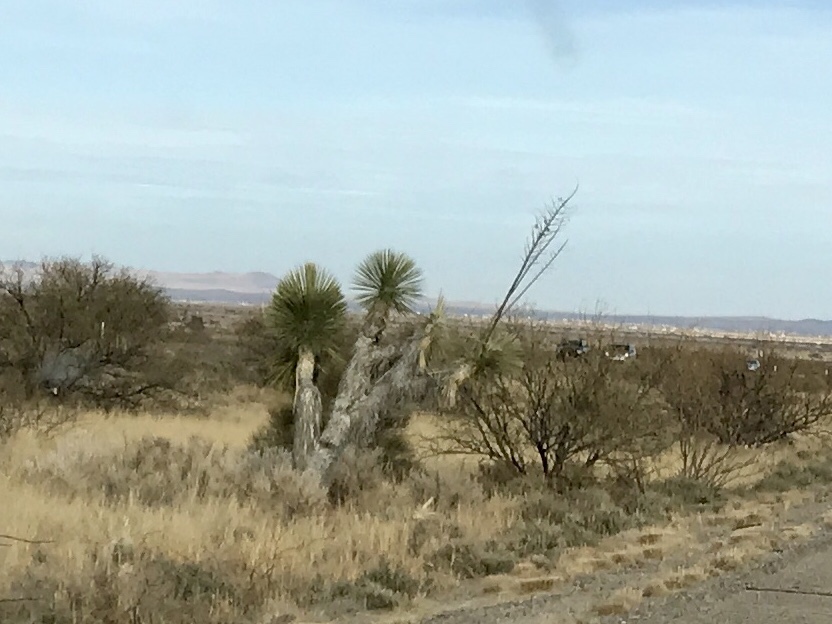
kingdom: Plantae
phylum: Tracheophyta
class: Liliopsida
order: Asparagales
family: Asparagaceae
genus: Yucca
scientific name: Yucca elata
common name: Palmella
